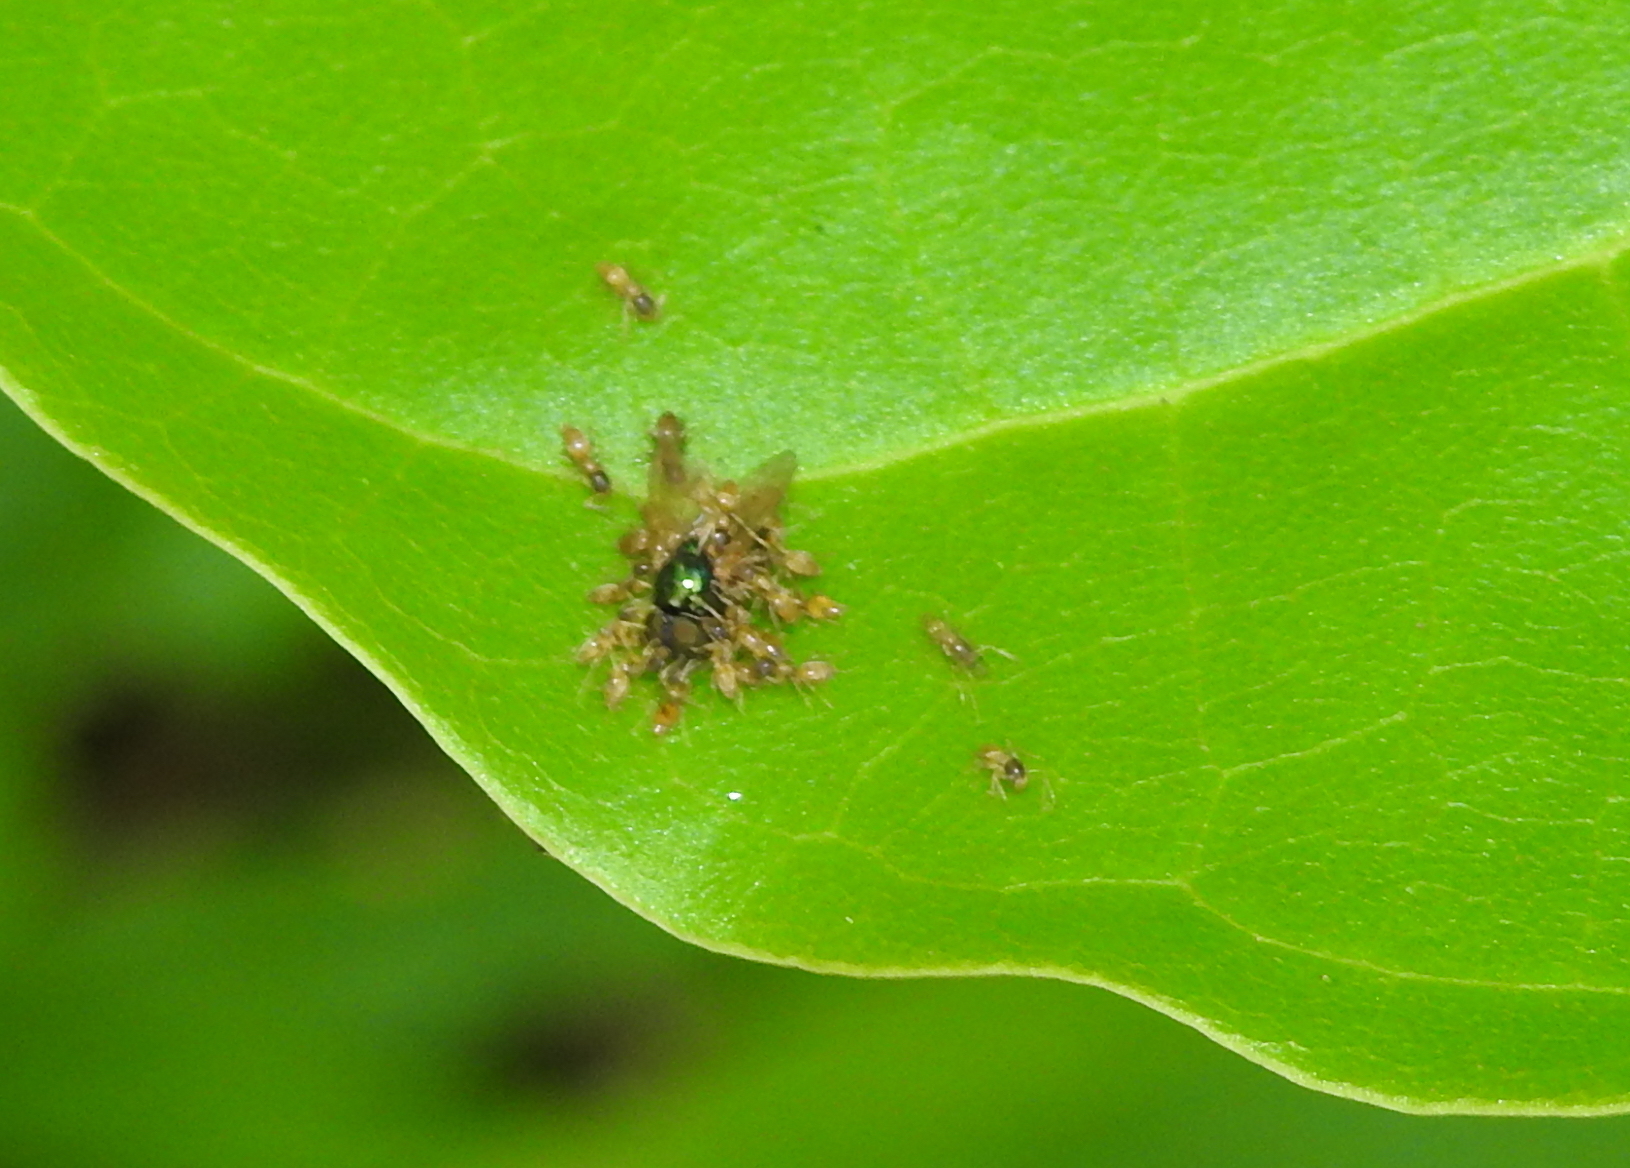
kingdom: Animalia
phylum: Arthropoda
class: Insecta
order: Hymenoptera
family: Formicidae
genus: Tapinoma
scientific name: Tapinoma melanocephalum
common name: Ghost ant
